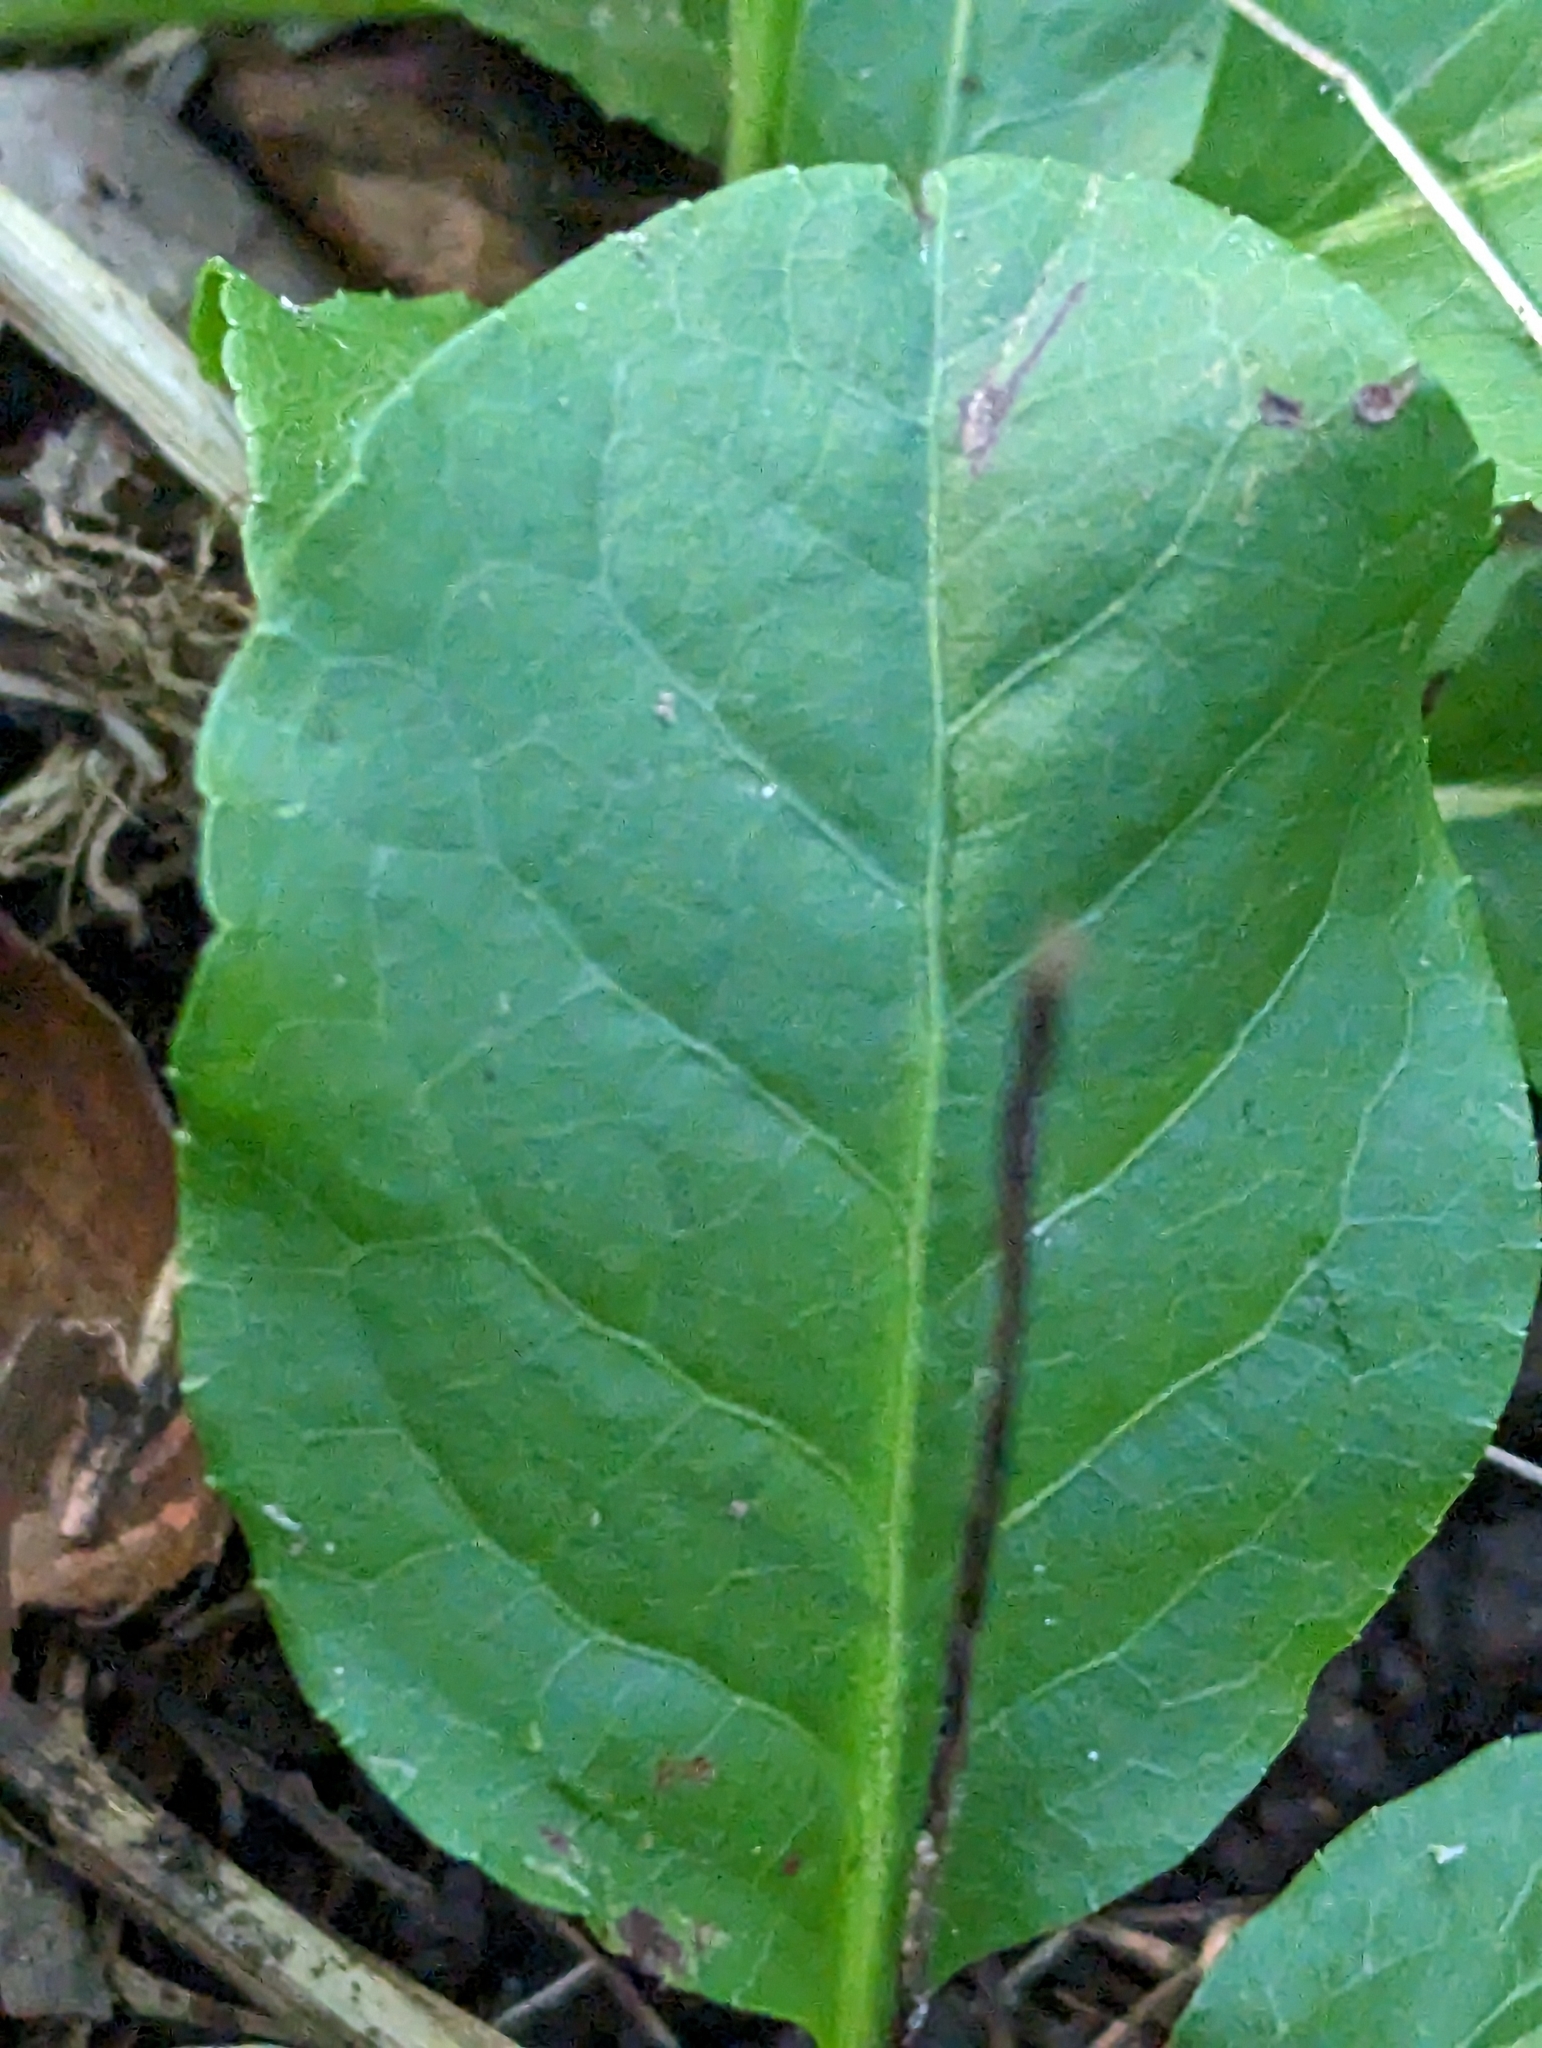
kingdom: Plantae
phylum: Tracheophyta
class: Magnoliopsida
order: Ericales
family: Ericaceae
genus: Pyrola
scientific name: Pyrola elliptica
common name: Shinleaf
